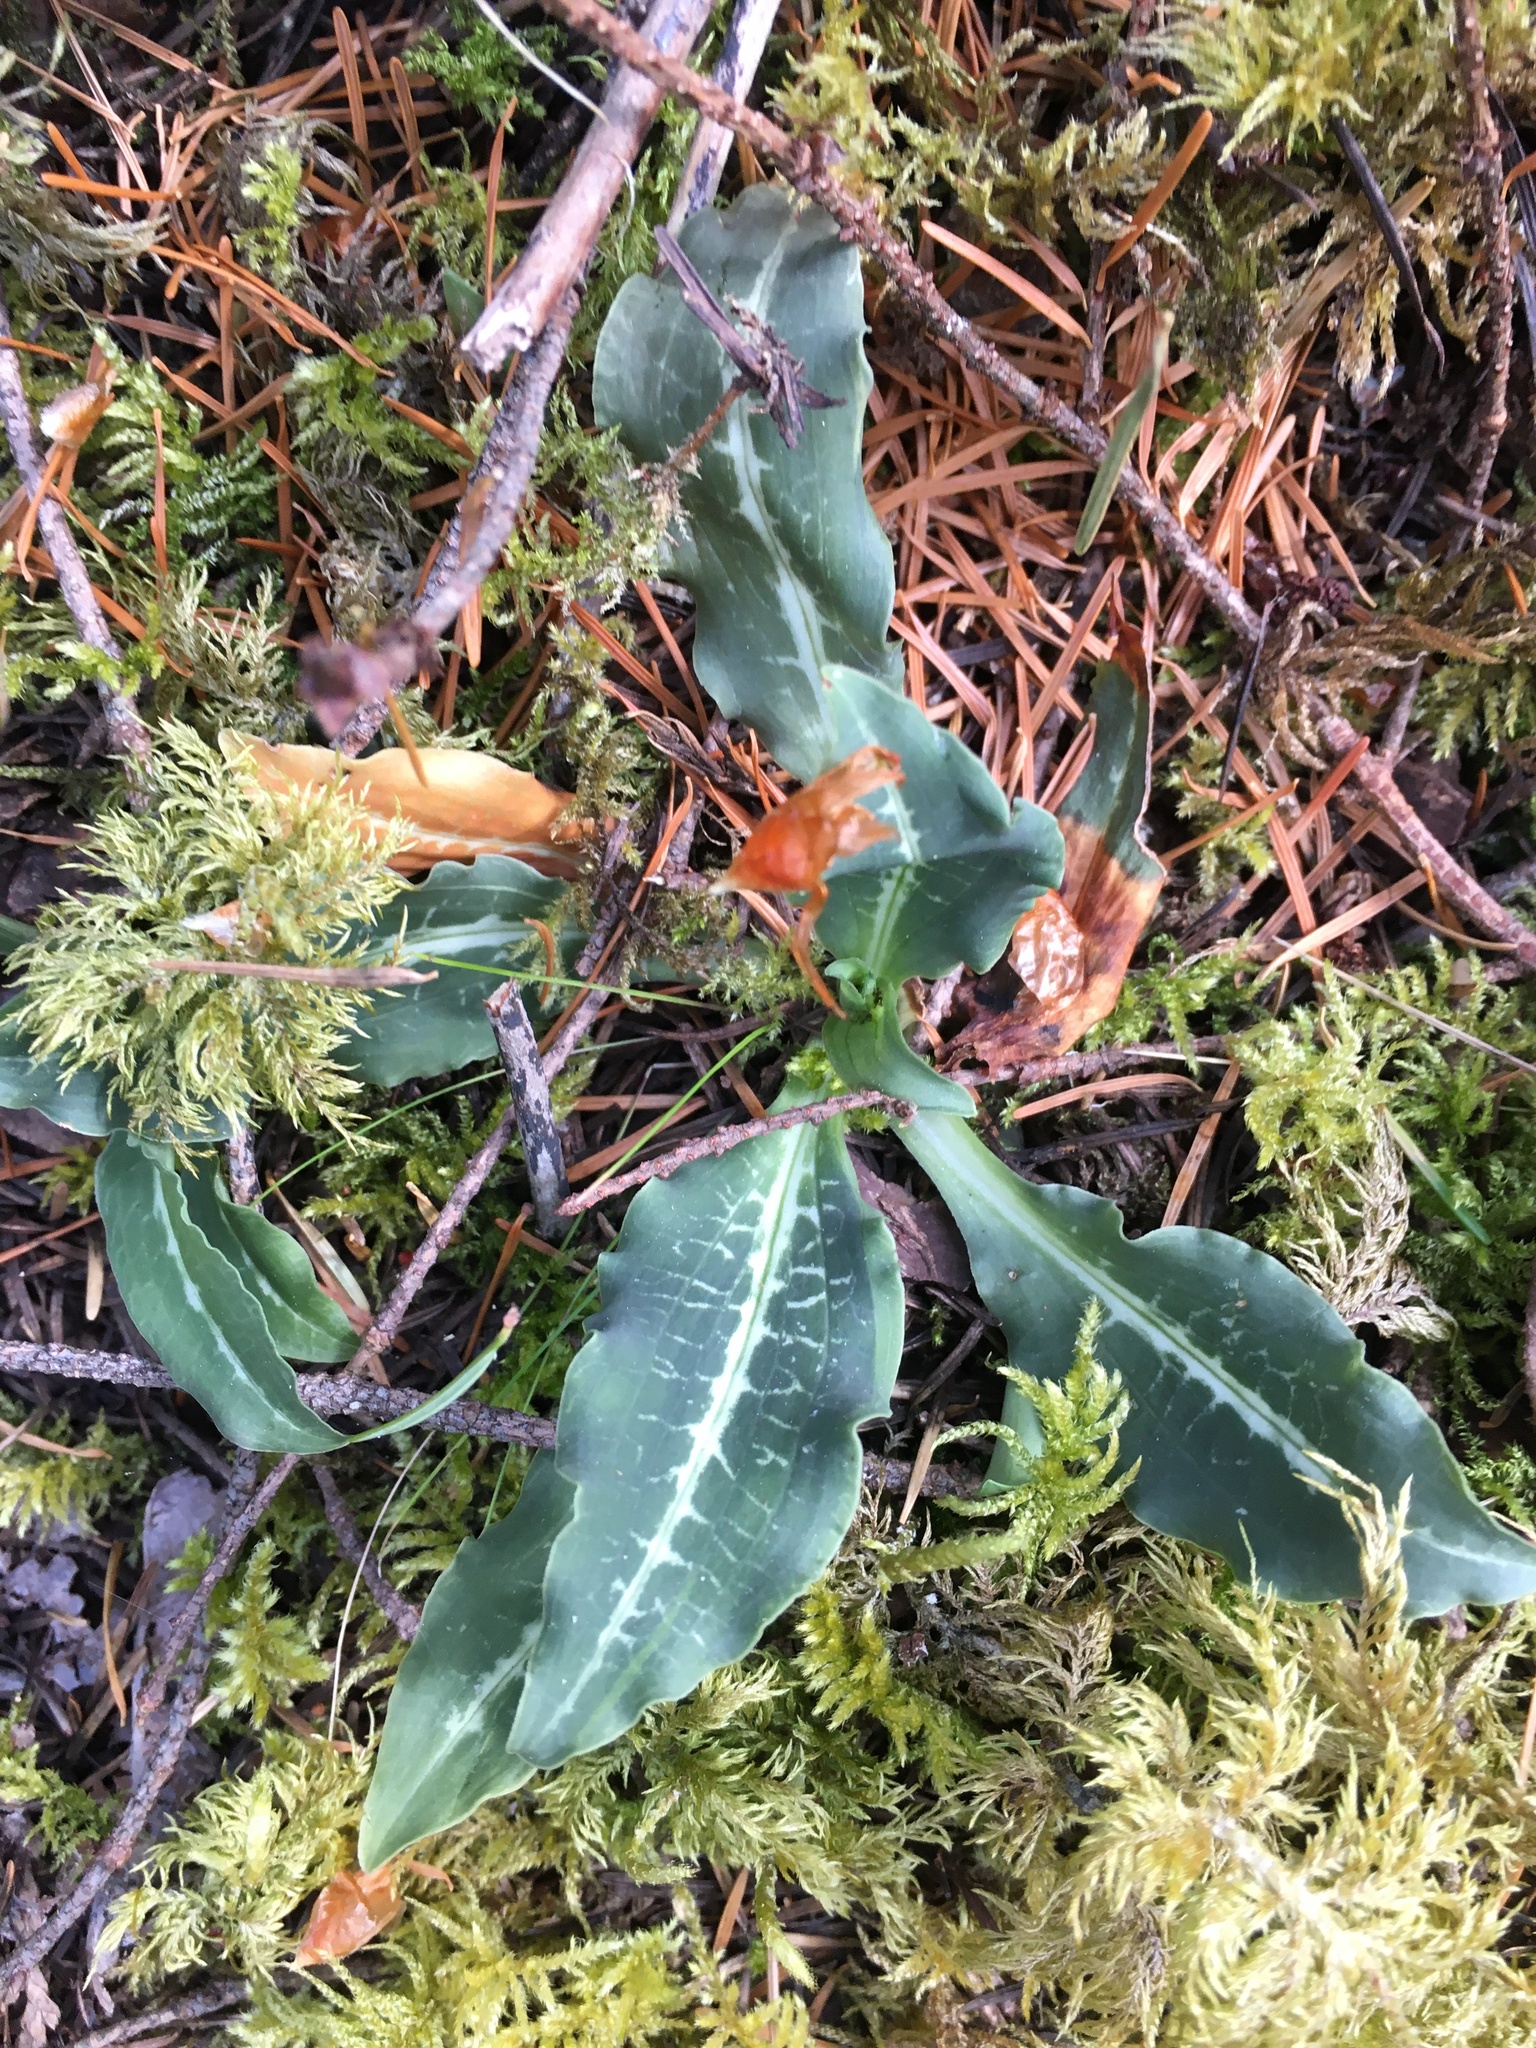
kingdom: Plantae
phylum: Tracheophyta
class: Liliopsida
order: Asparagales
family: Orchidaceae
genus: Goodyera
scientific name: Goodyera oblongifolia
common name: Giant rattlesnake-plantain
